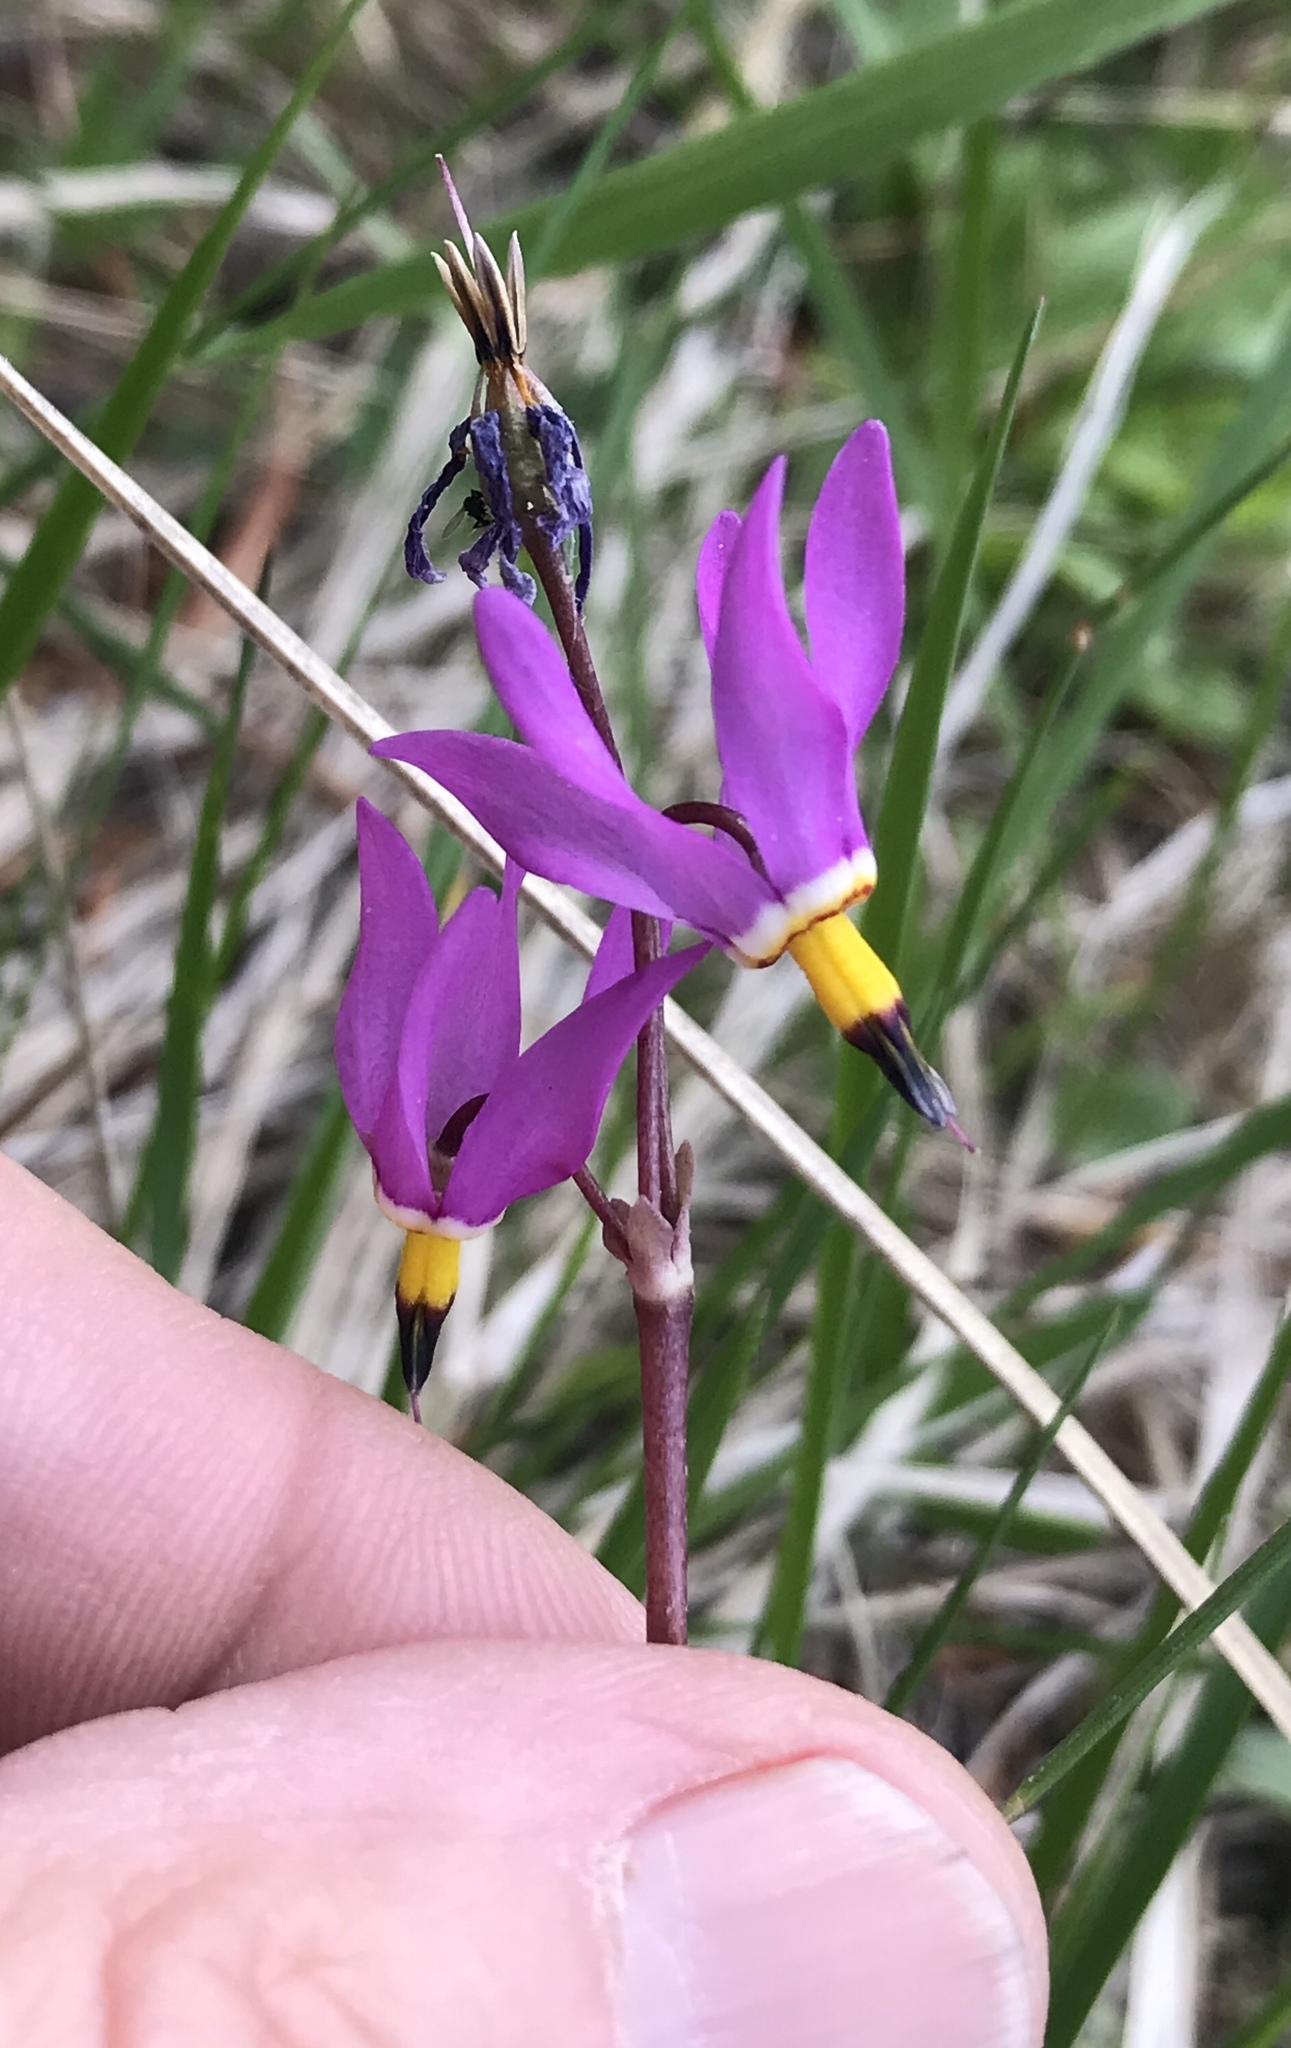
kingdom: Plantae
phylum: Tracheophyta
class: Magnoliopsida
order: Ericales
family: Primulaceae
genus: Dodecatheon
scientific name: Dodecatheon pulchellum
